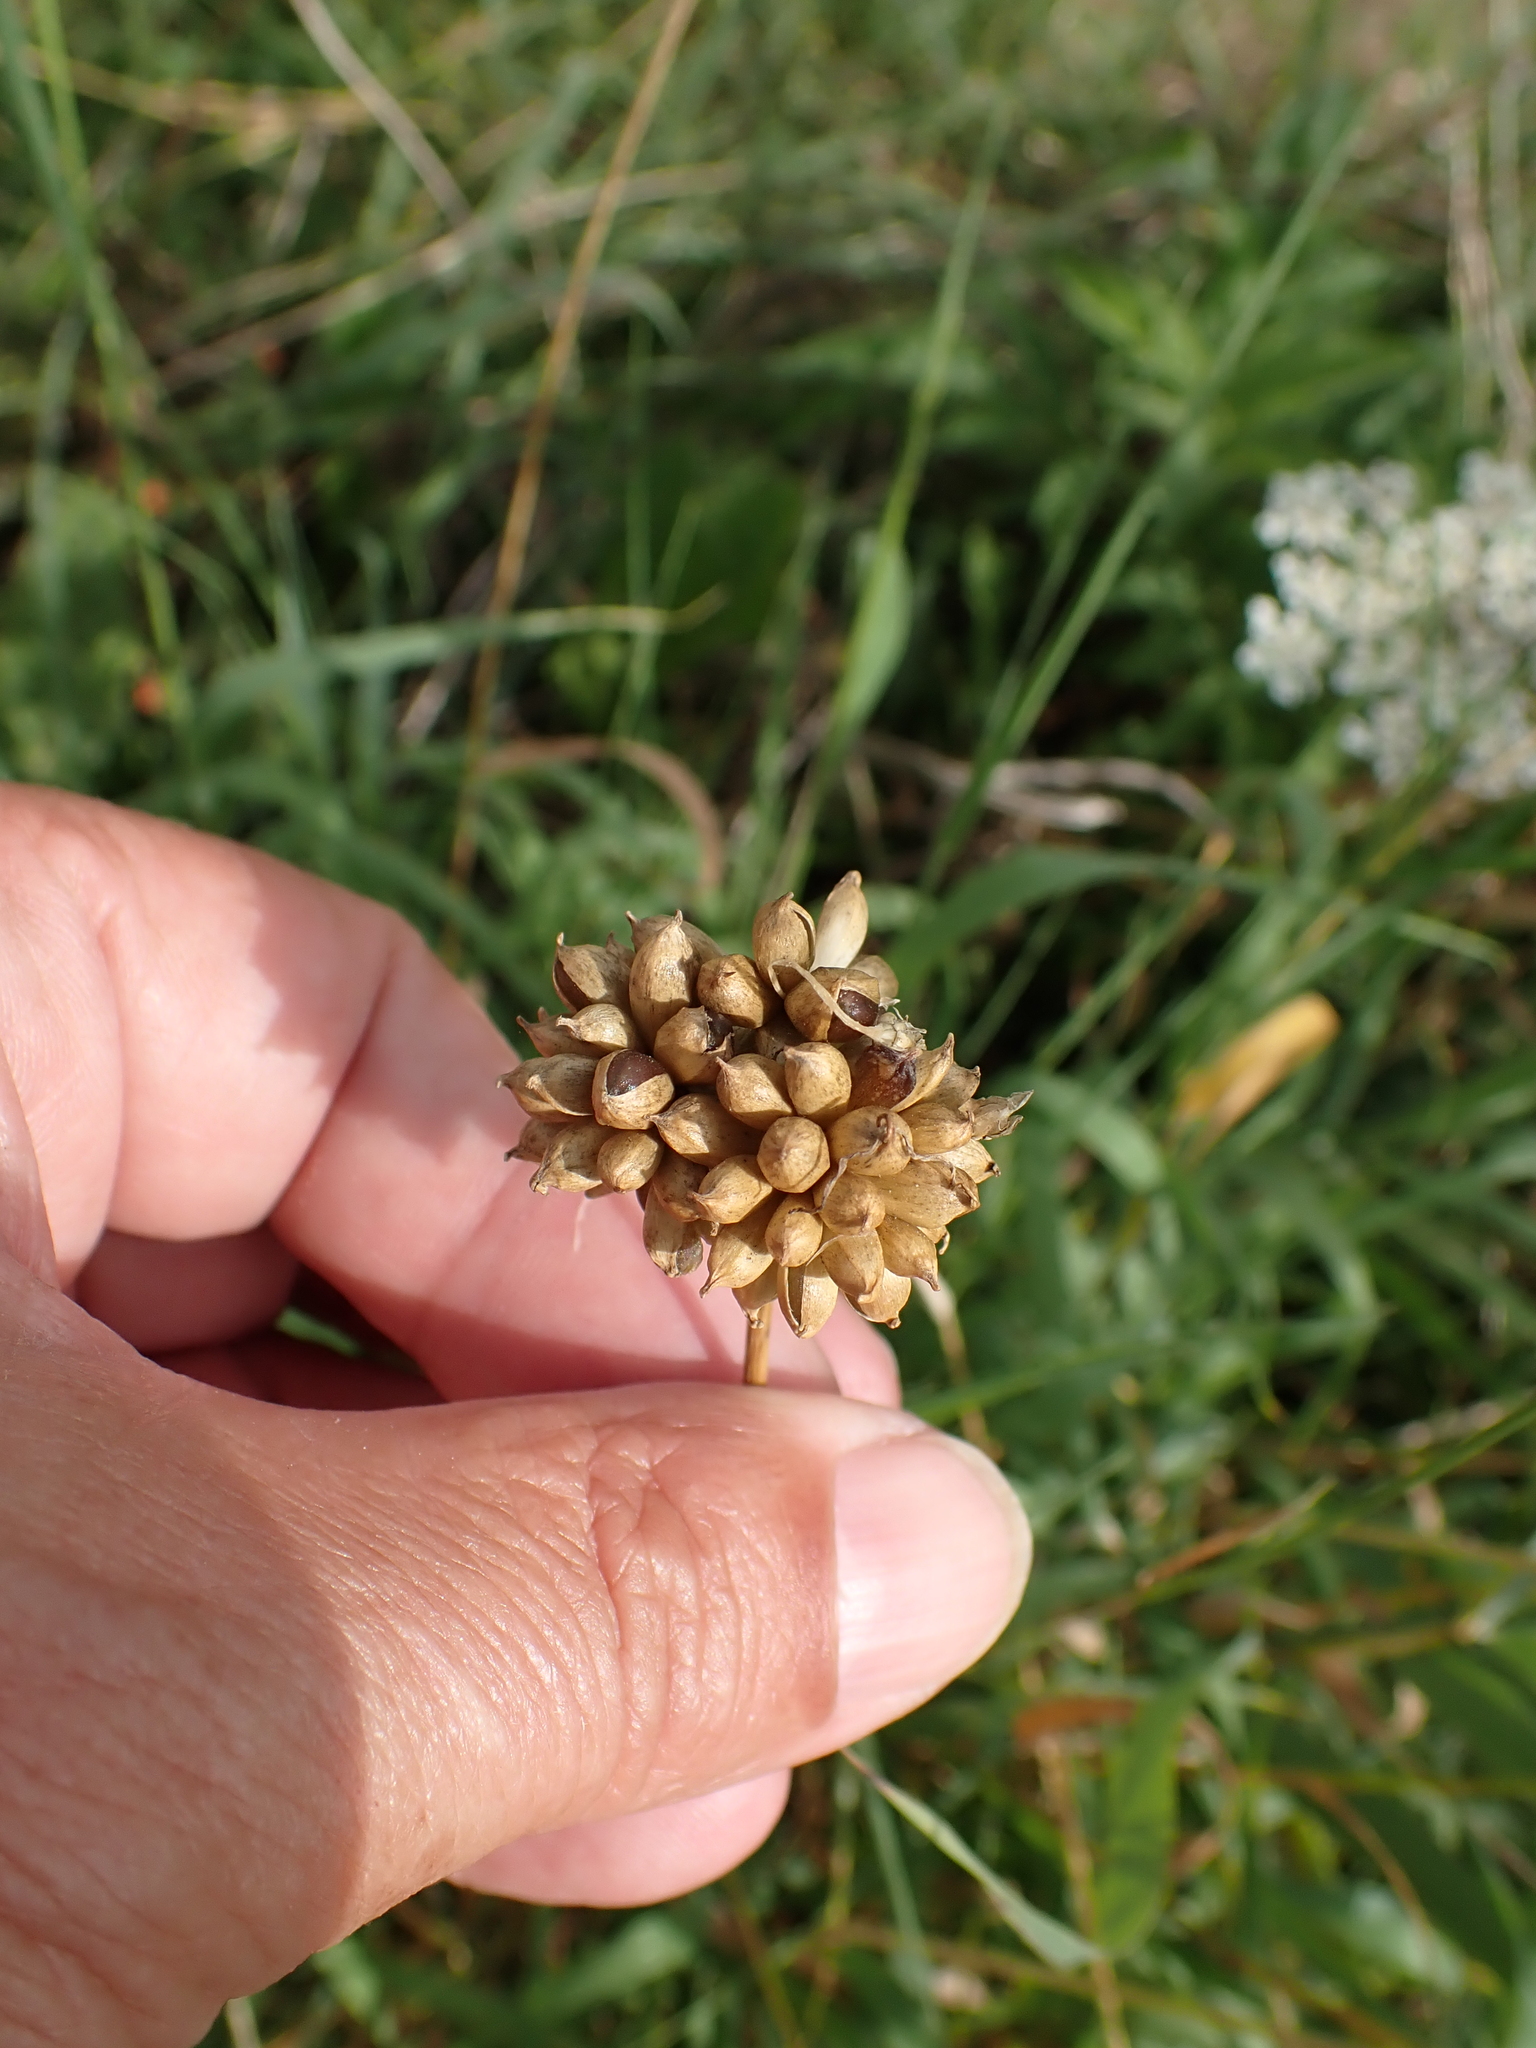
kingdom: Plantae
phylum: Tracheophyta
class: Liliopsida
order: Asparagales
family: Amaryllidaceae
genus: Allium
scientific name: Allium vineale
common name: Crow garlic
